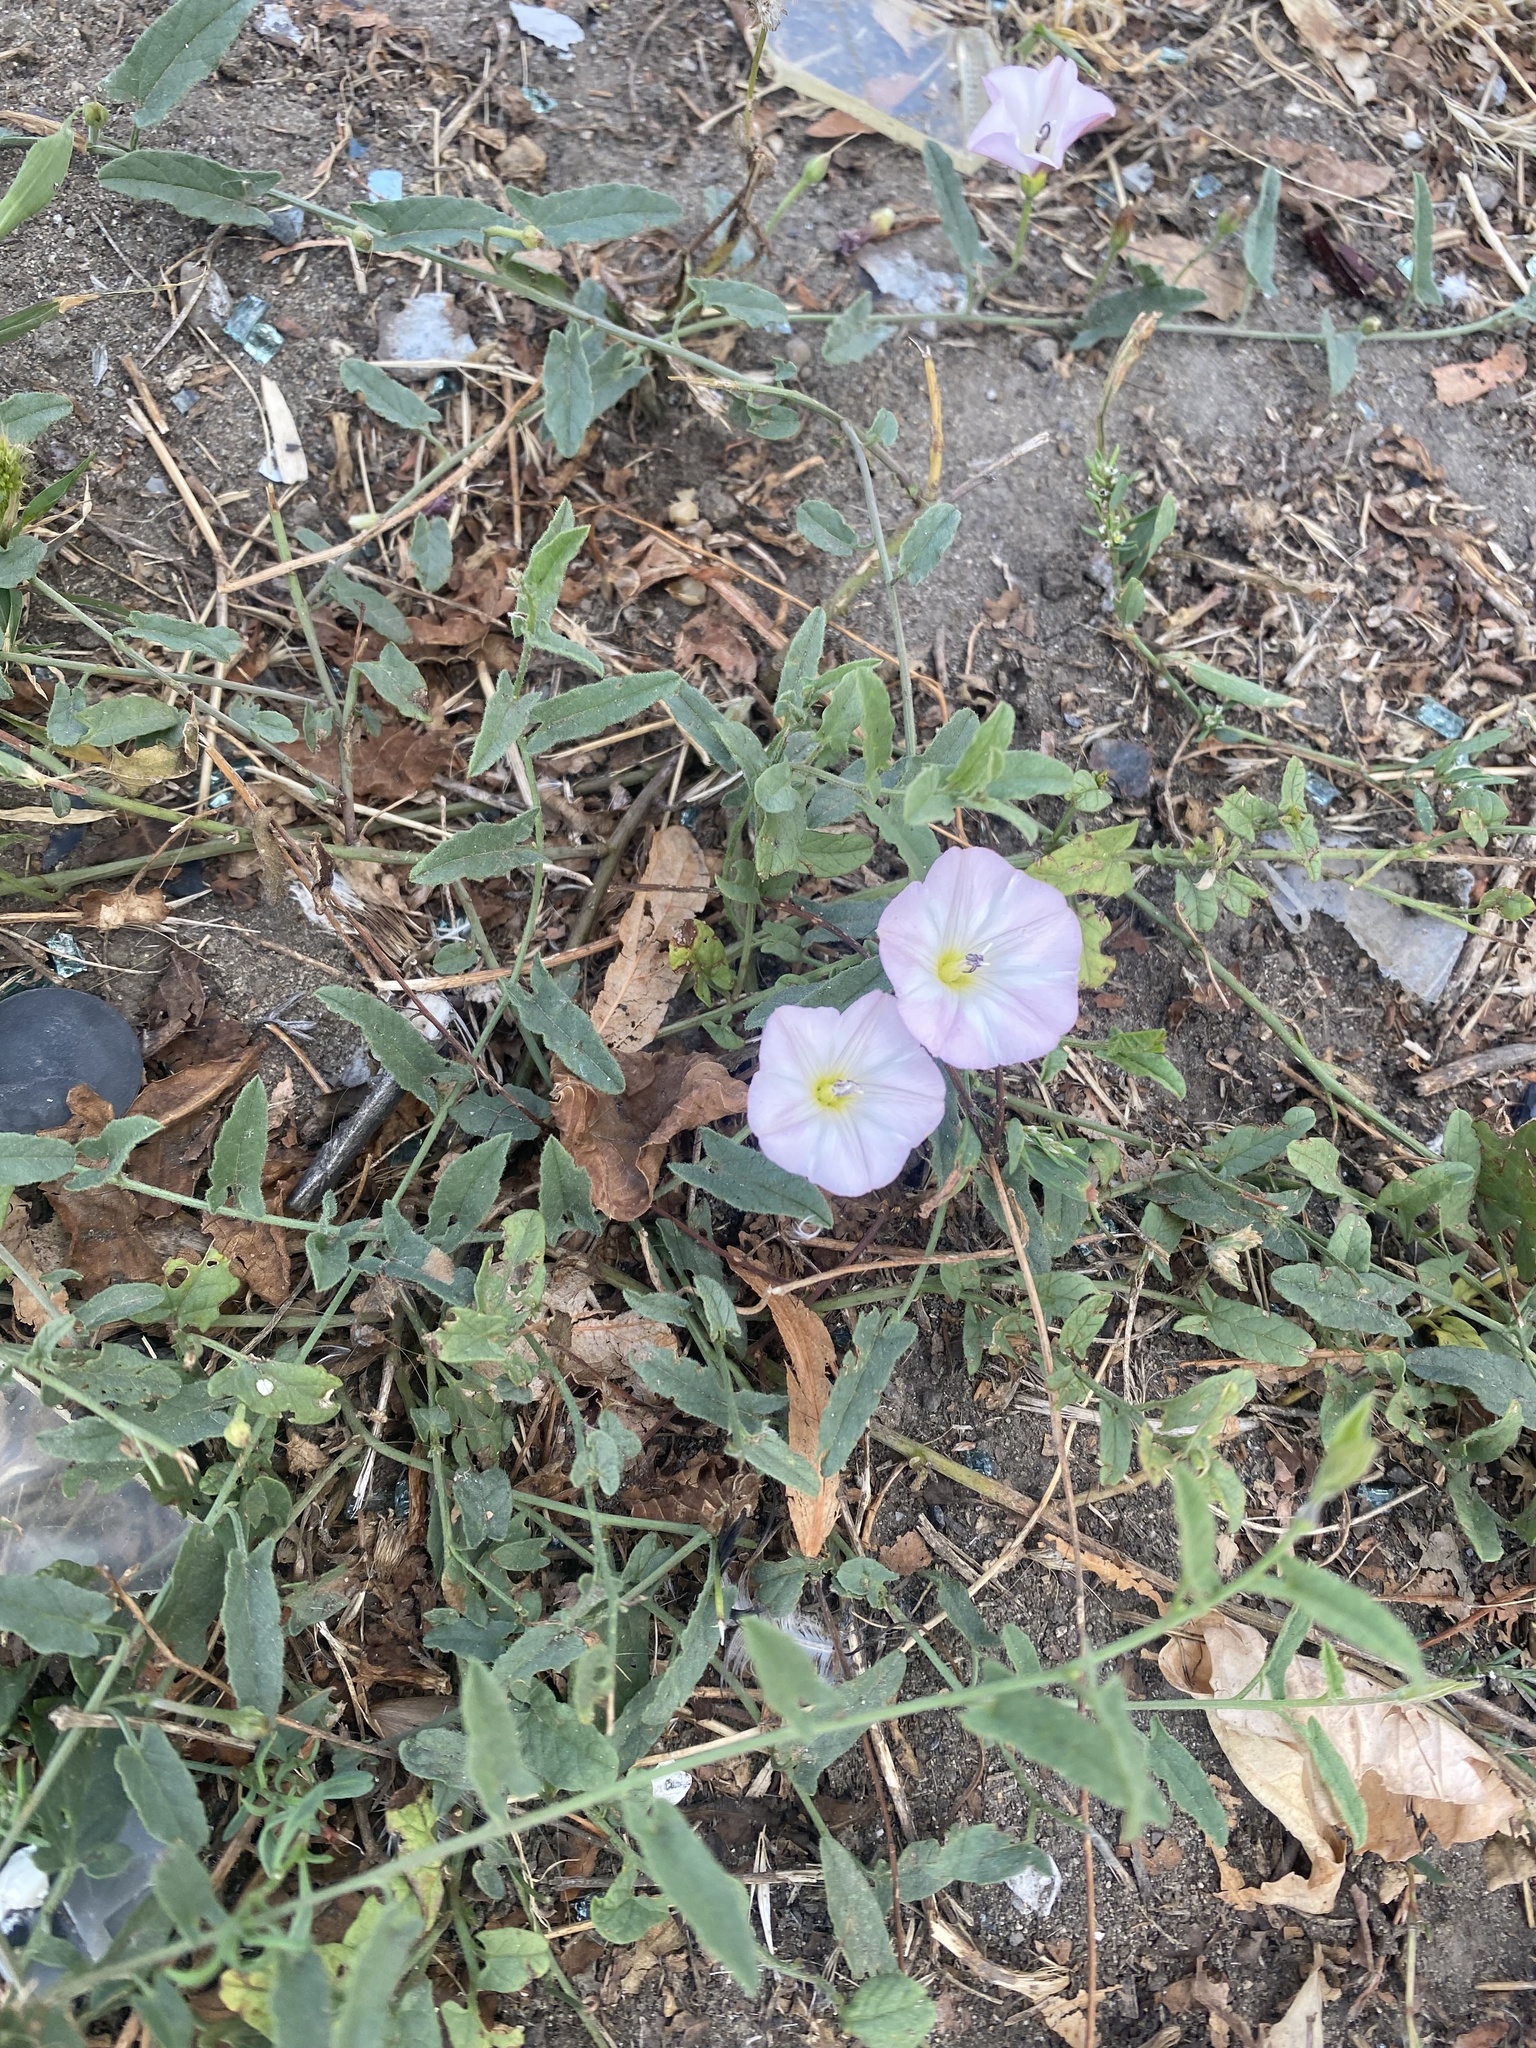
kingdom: Plantae
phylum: Tracheophyta
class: Magnoliopsida
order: Solanales
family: Convolvulaceae
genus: Convolvulus
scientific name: Convolvulus arvensis
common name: Field bindweed
